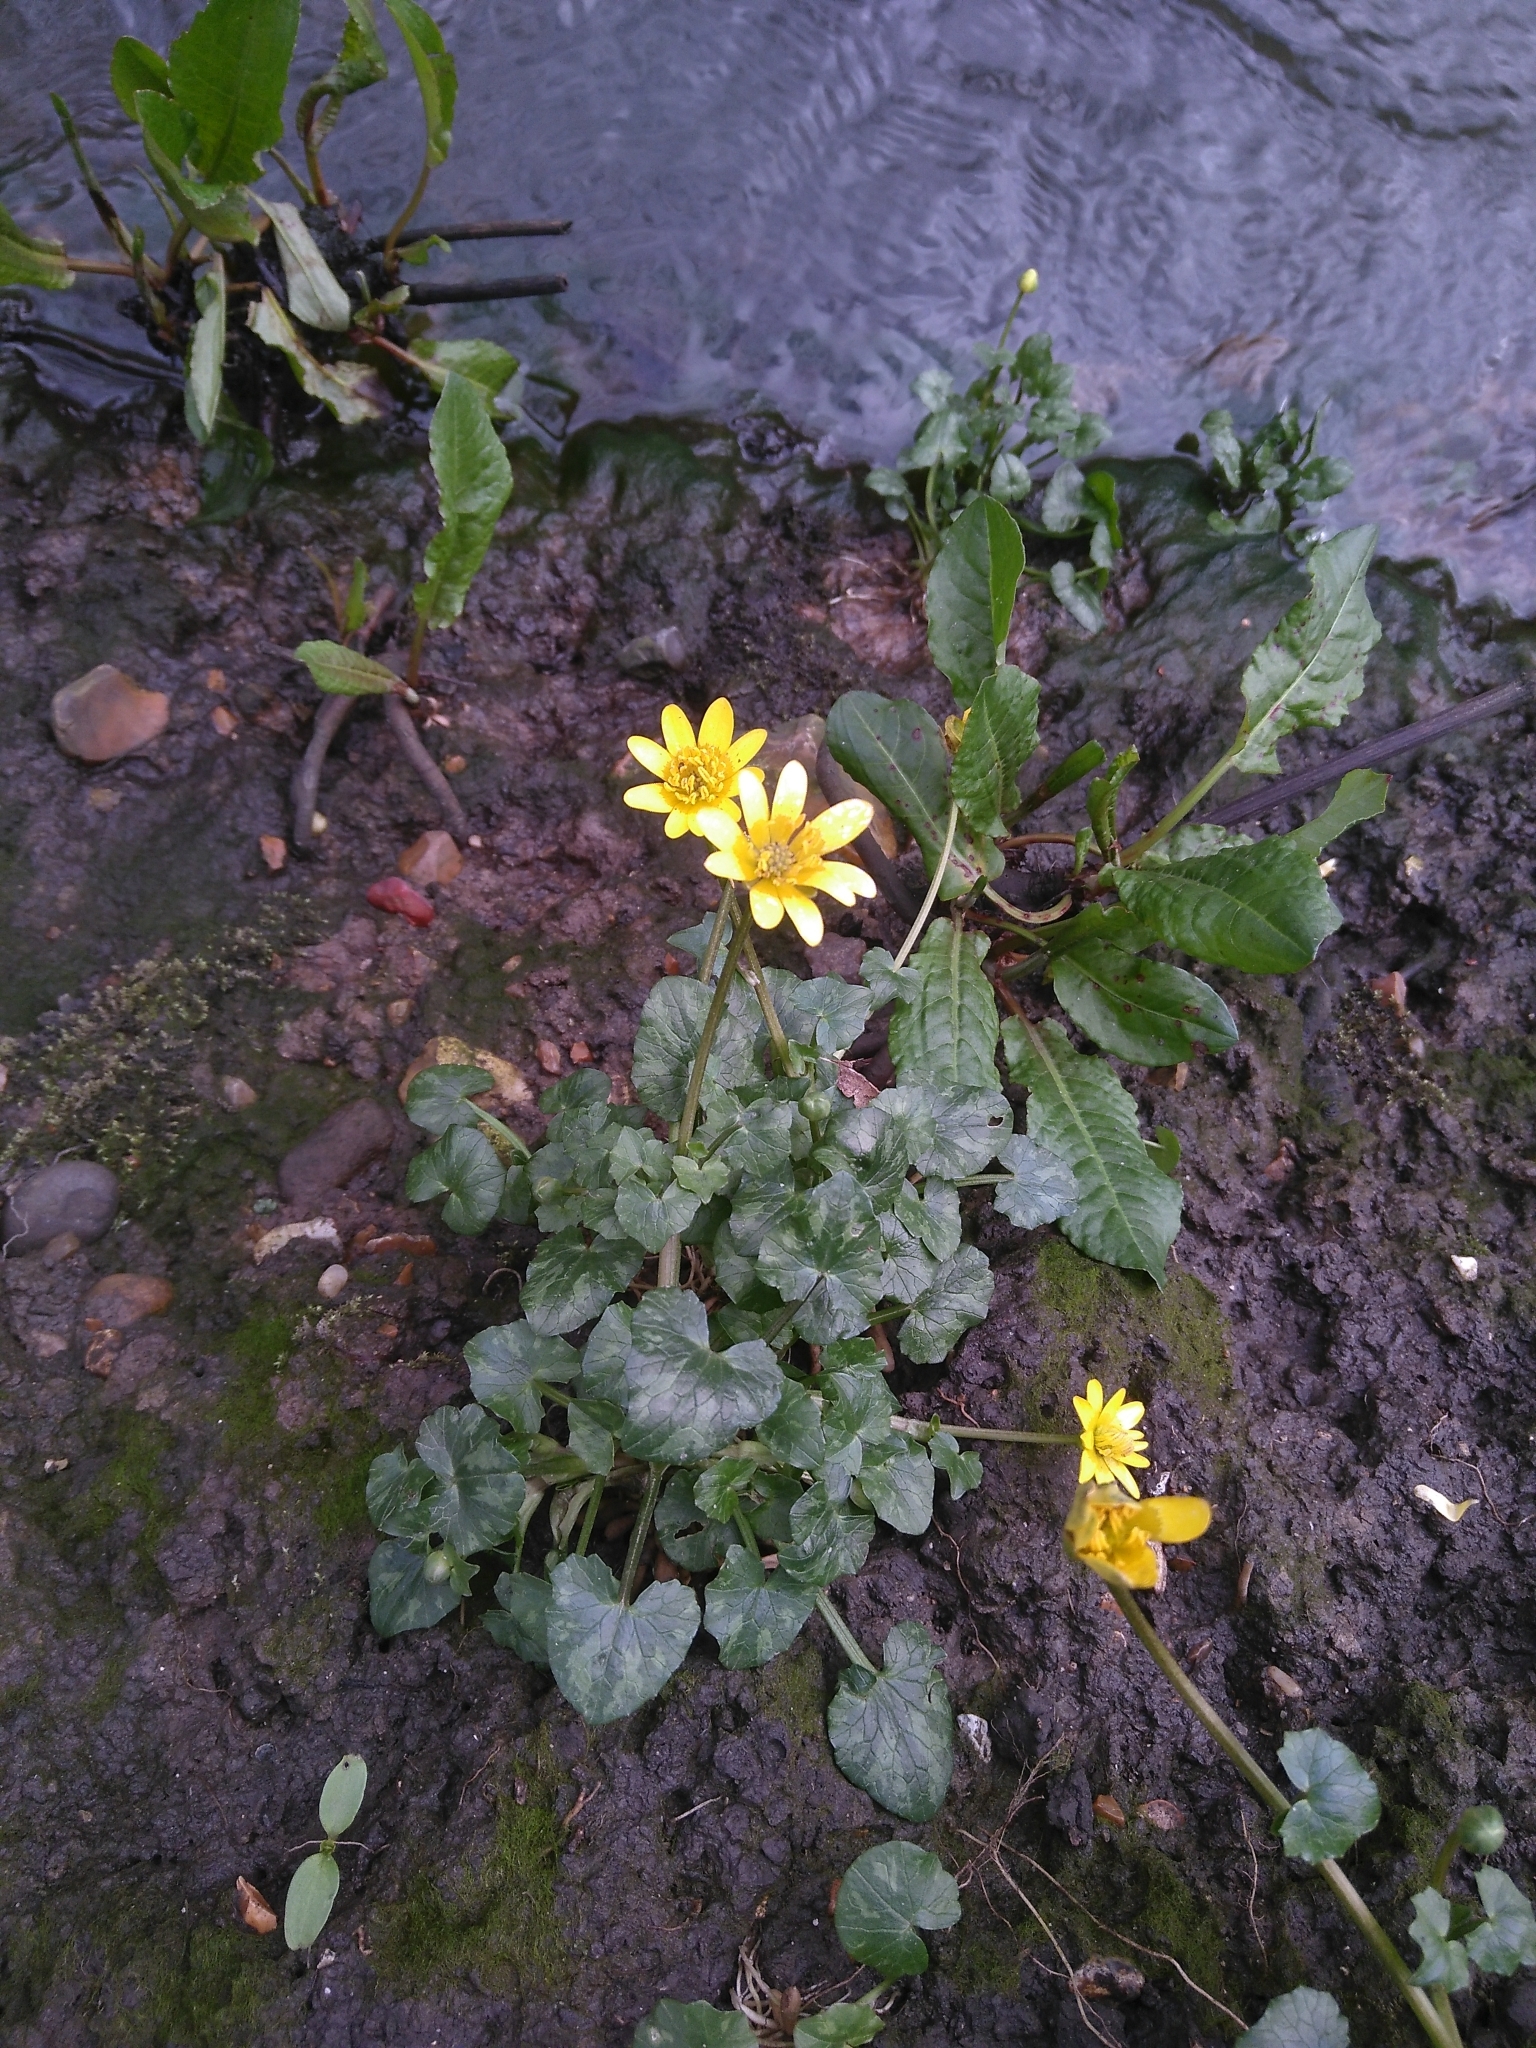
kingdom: Plantae
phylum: Tracheophyta
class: Magnoliopsida
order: Ranunculales
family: Ranunculaceae
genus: Ficaria
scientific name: Ficaria verna
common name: Lesser celandine
